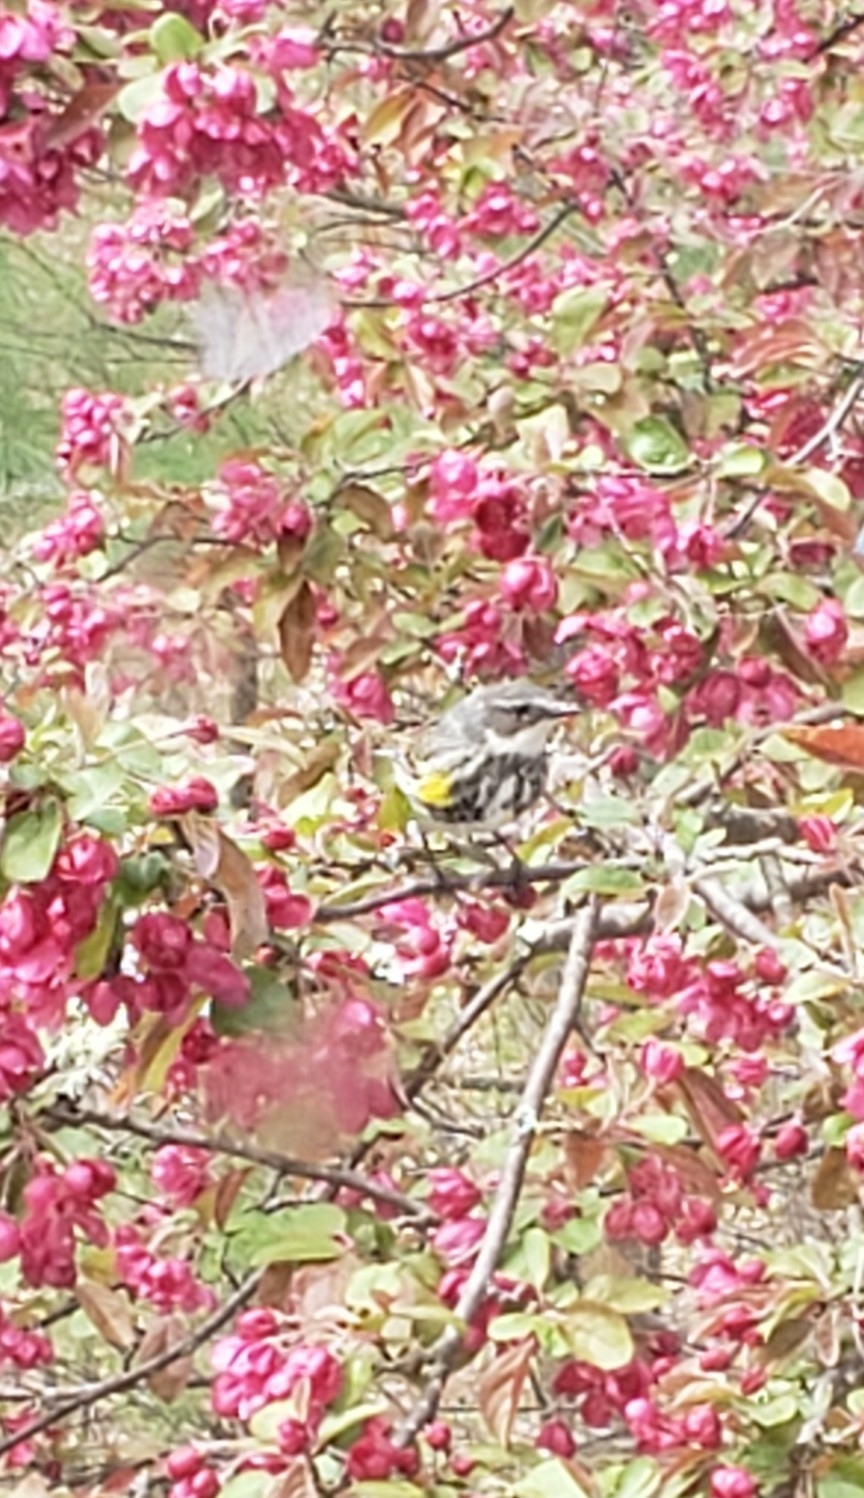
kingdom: Animalia
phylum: Chordata
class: Aves
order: Passeriformes
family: Parulidae
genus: Setophaga
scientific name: Setophaga coronata
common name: Myrtle warbler
